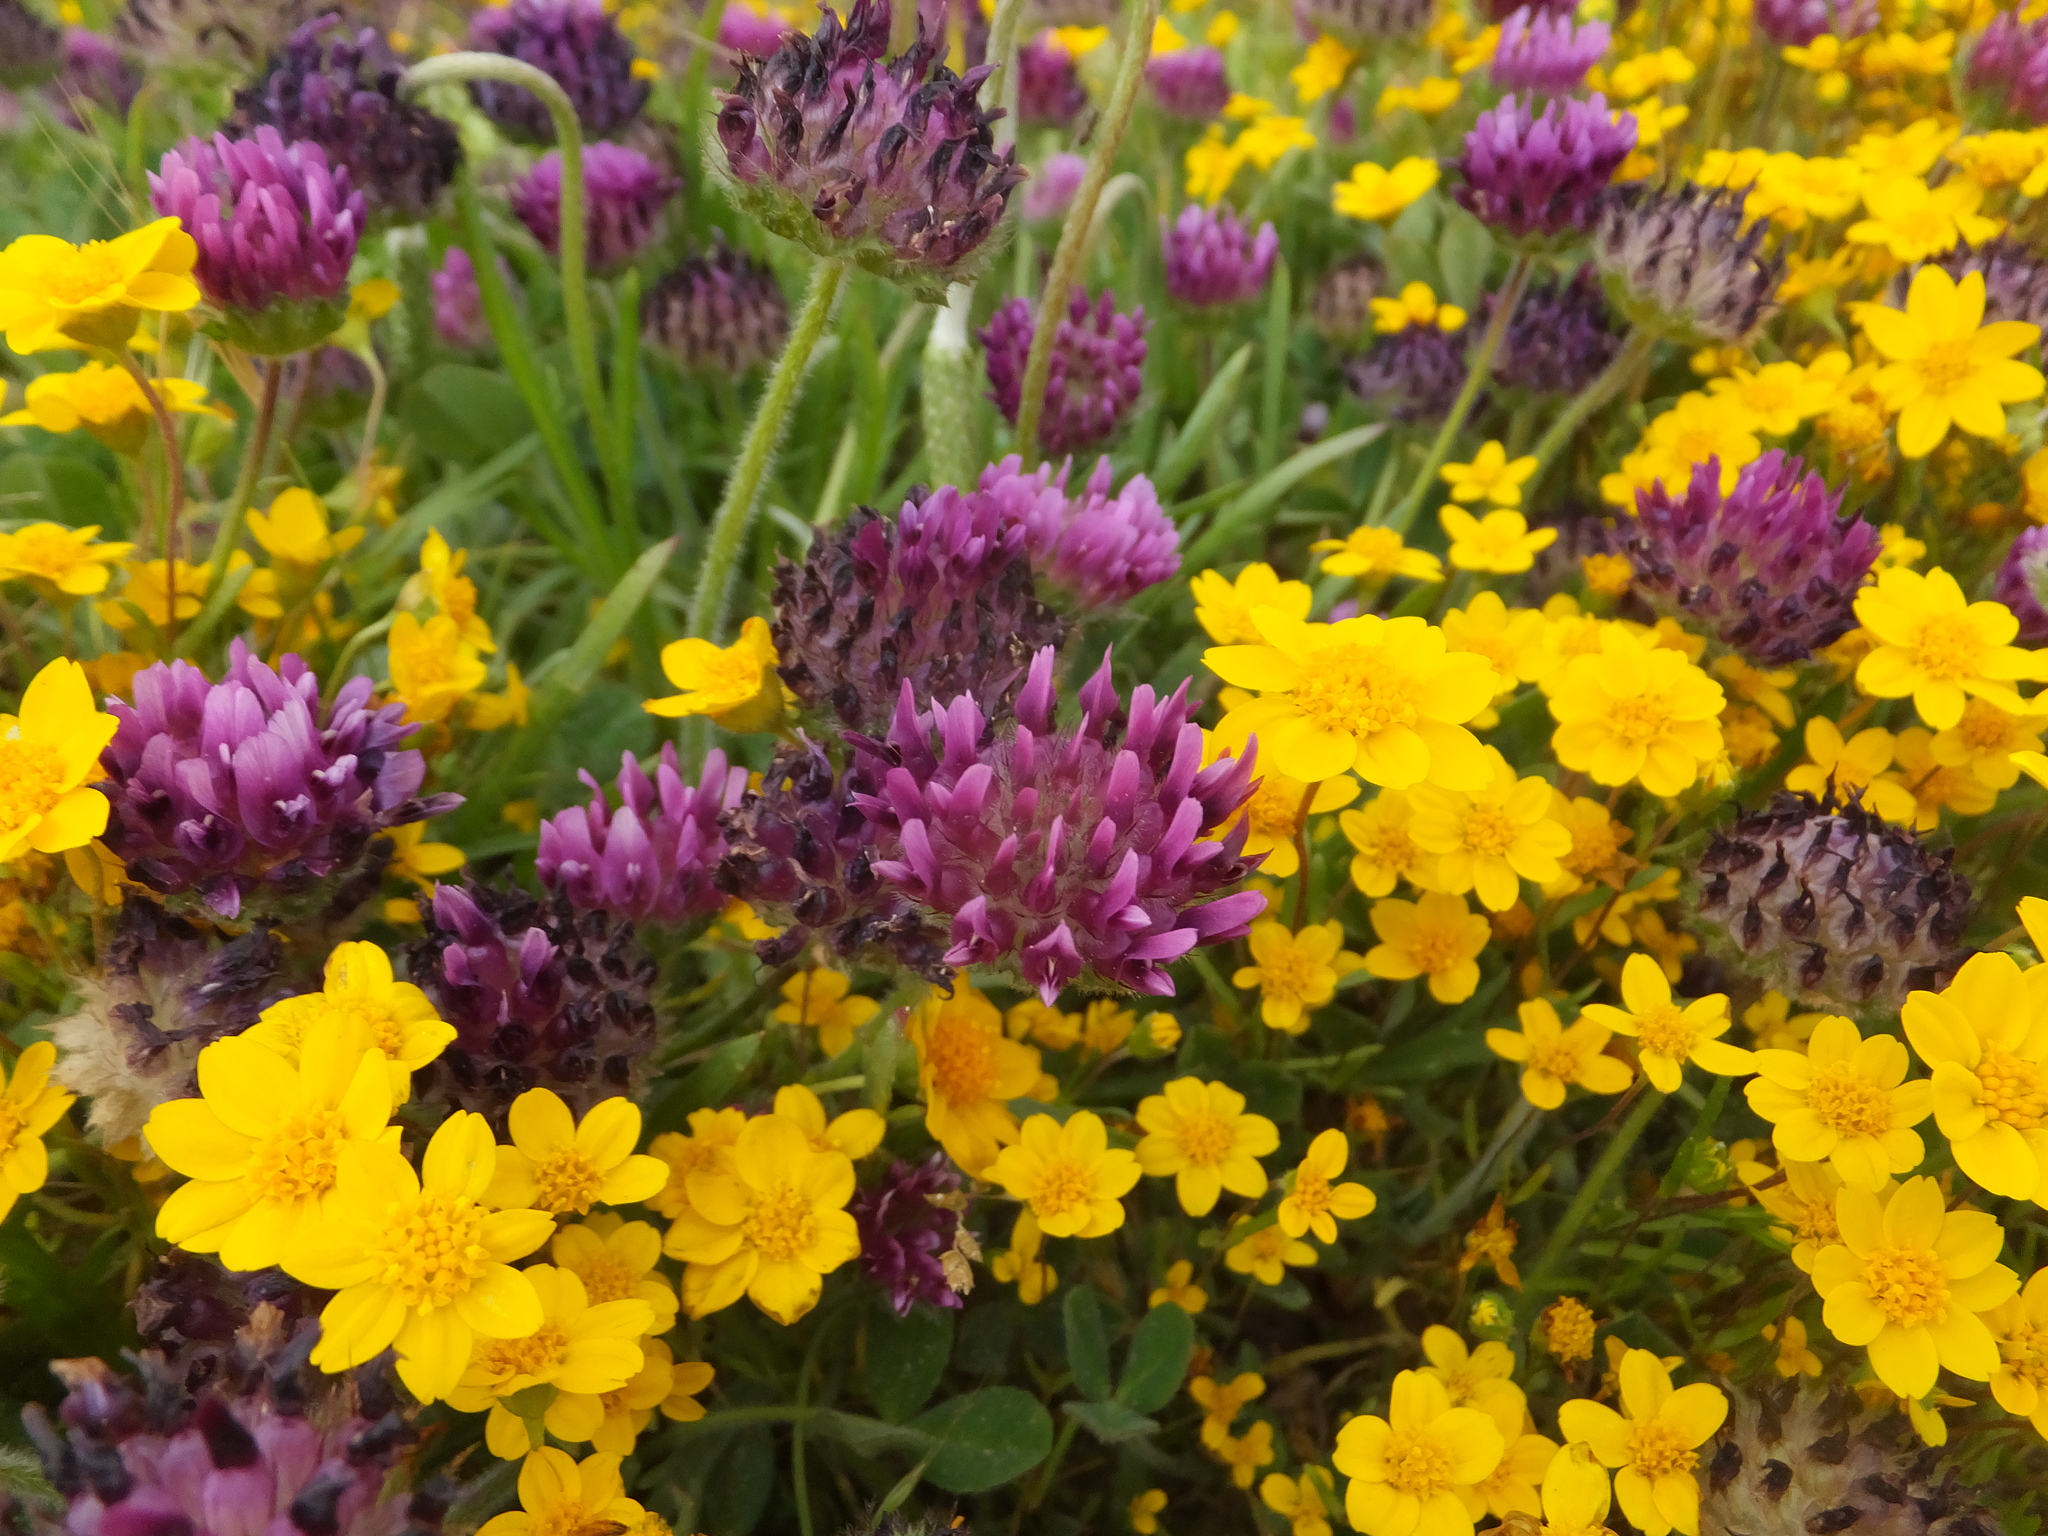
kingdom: Plantae
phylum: Tracheophyta
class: Magnoliopsida
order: Fabales
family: Fabaceae
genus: Trifolium
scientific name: Trifolium barbigerum
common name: Bearded clover
